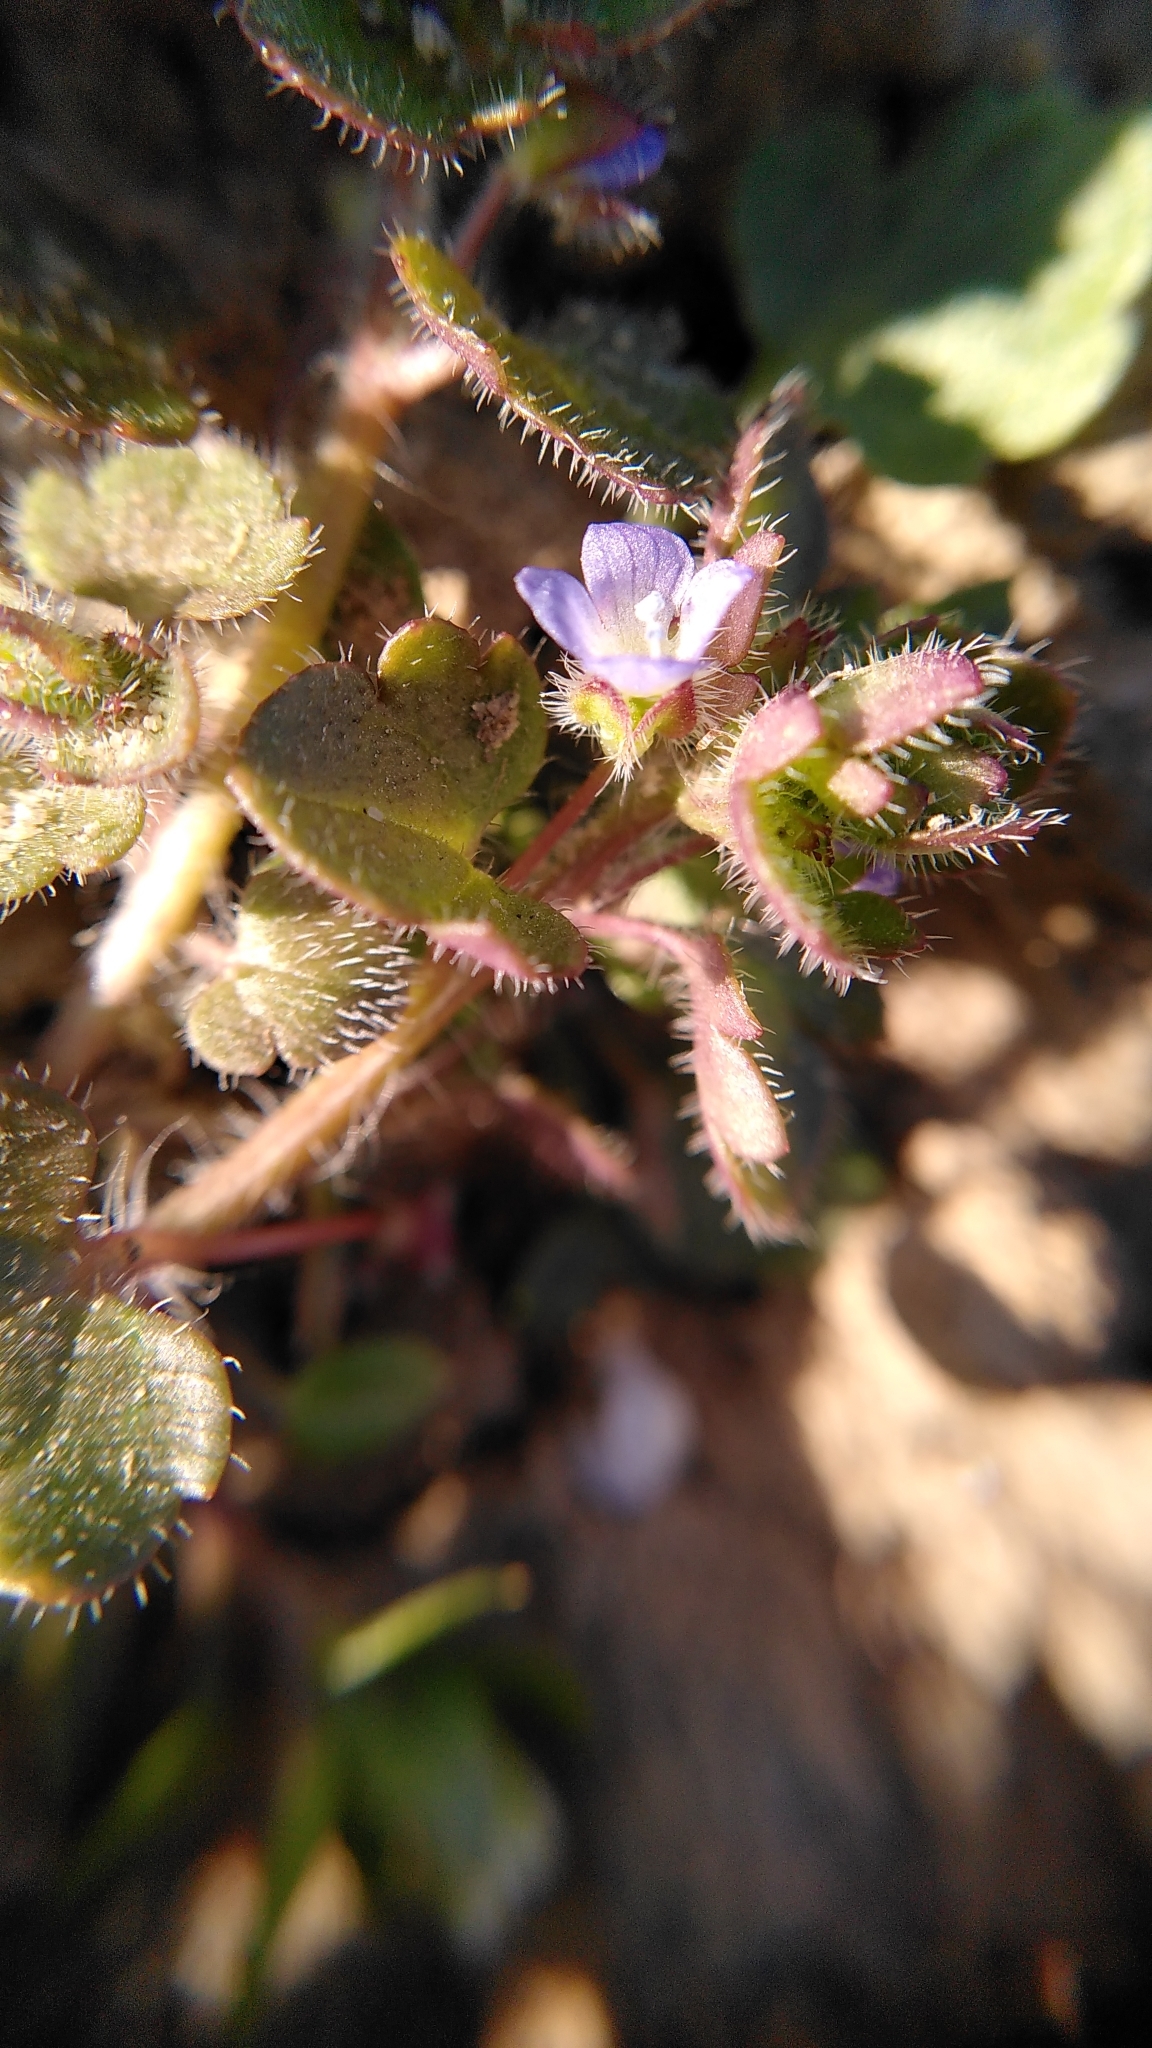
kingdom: Plantae
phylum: Tracheophyta
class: Magnoliopsida
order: Lamiales
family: Plantaginaceae
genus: Veronica
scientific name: Veronica hederifolia
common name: Ivy-leaved speedwell
